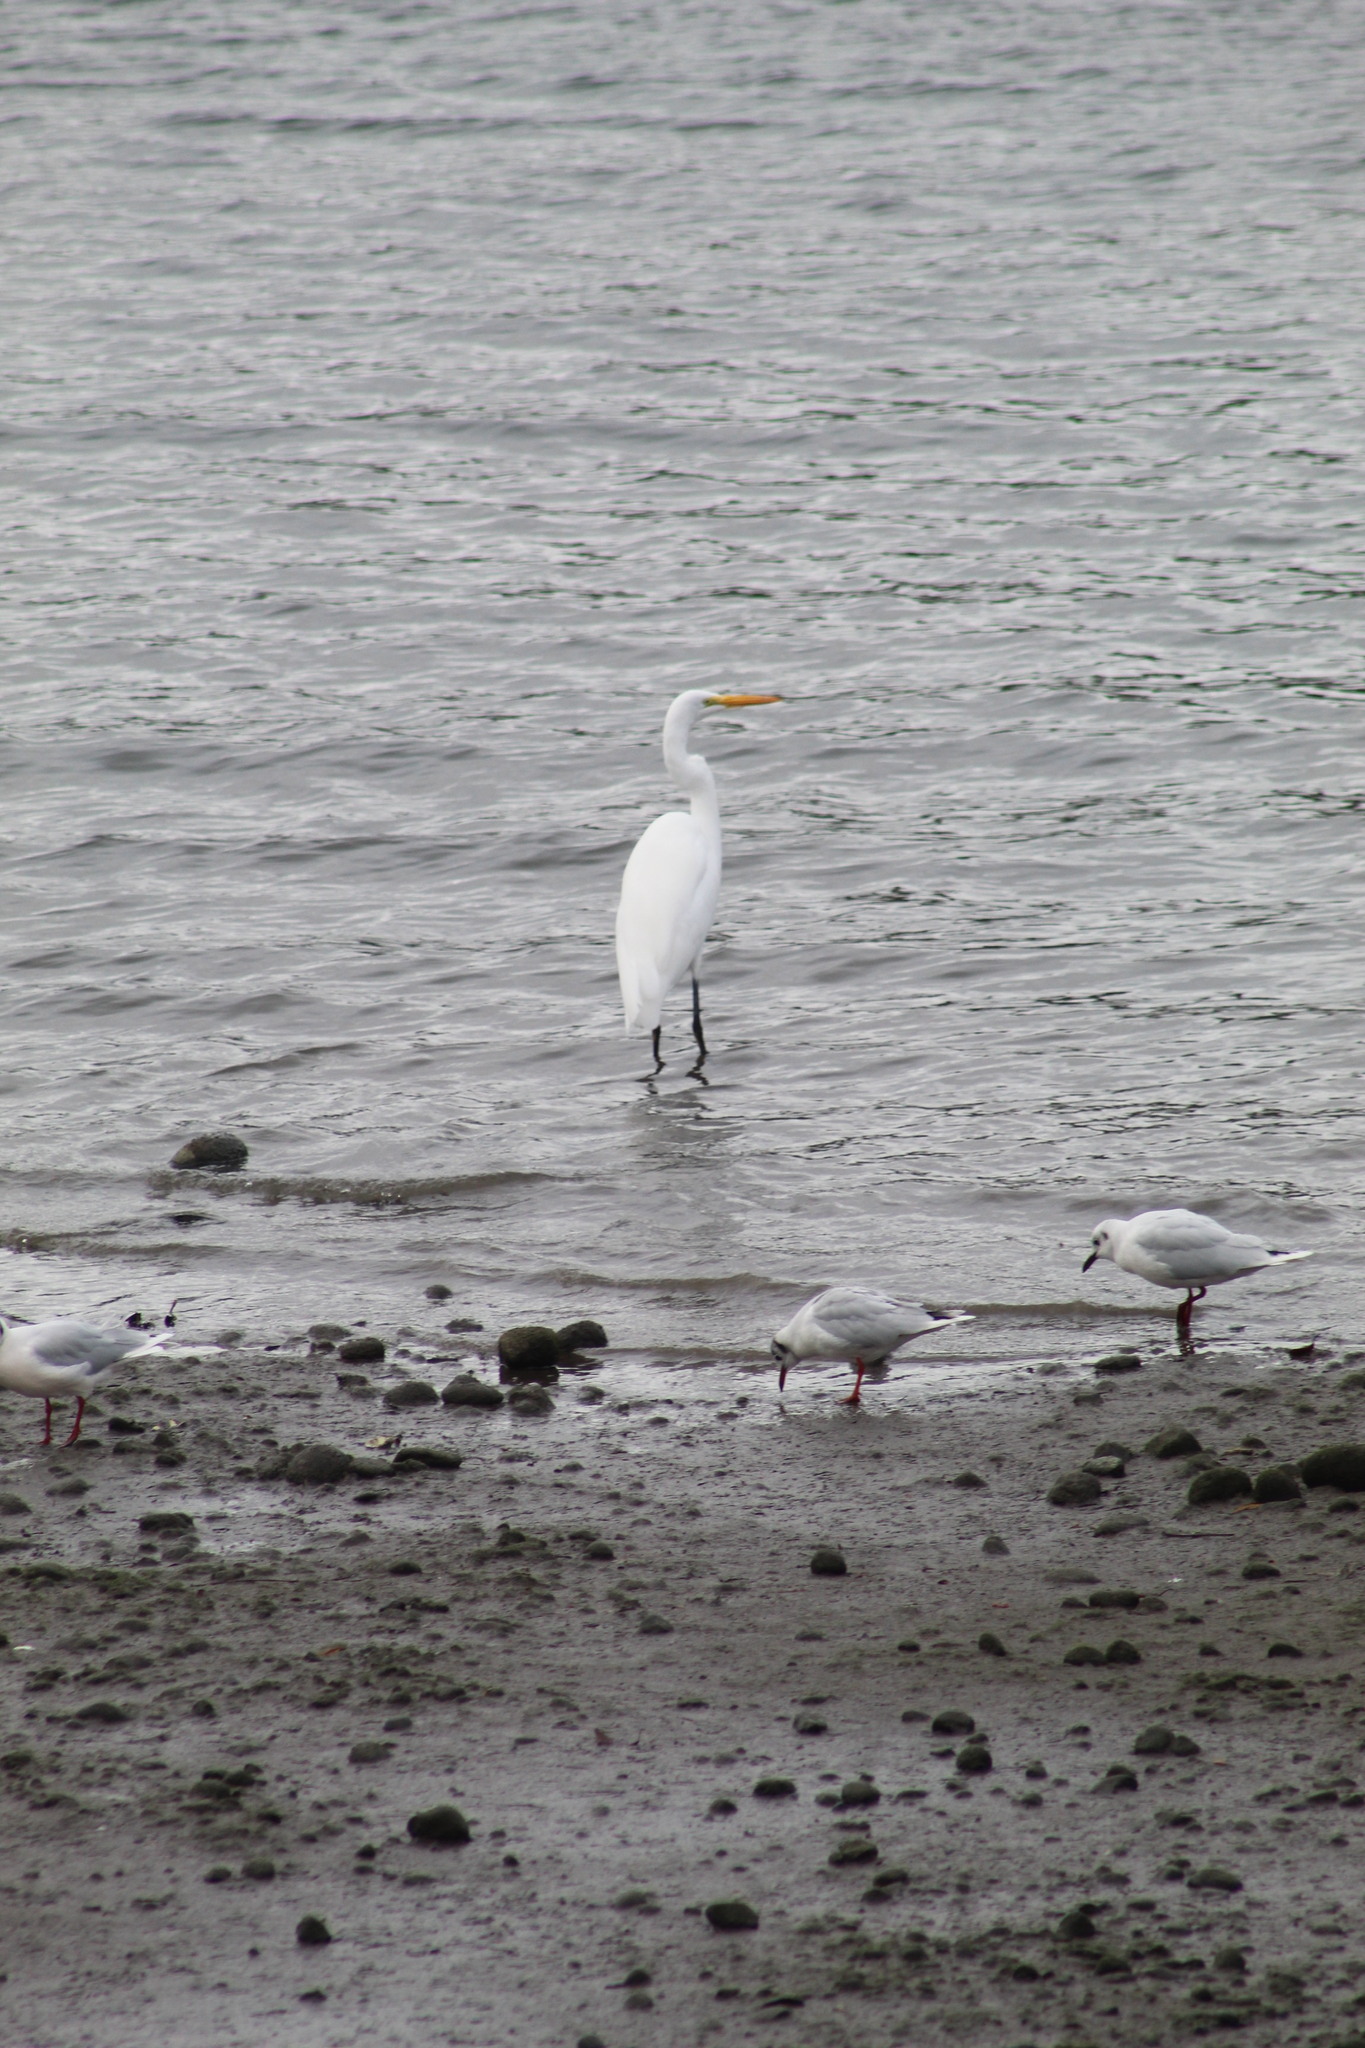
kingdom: Animalia
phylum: Chordata
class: Aves
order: Pelecaniformes
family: Ardeidae
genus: Ardea
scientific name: Ardea alba
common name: Great egret
